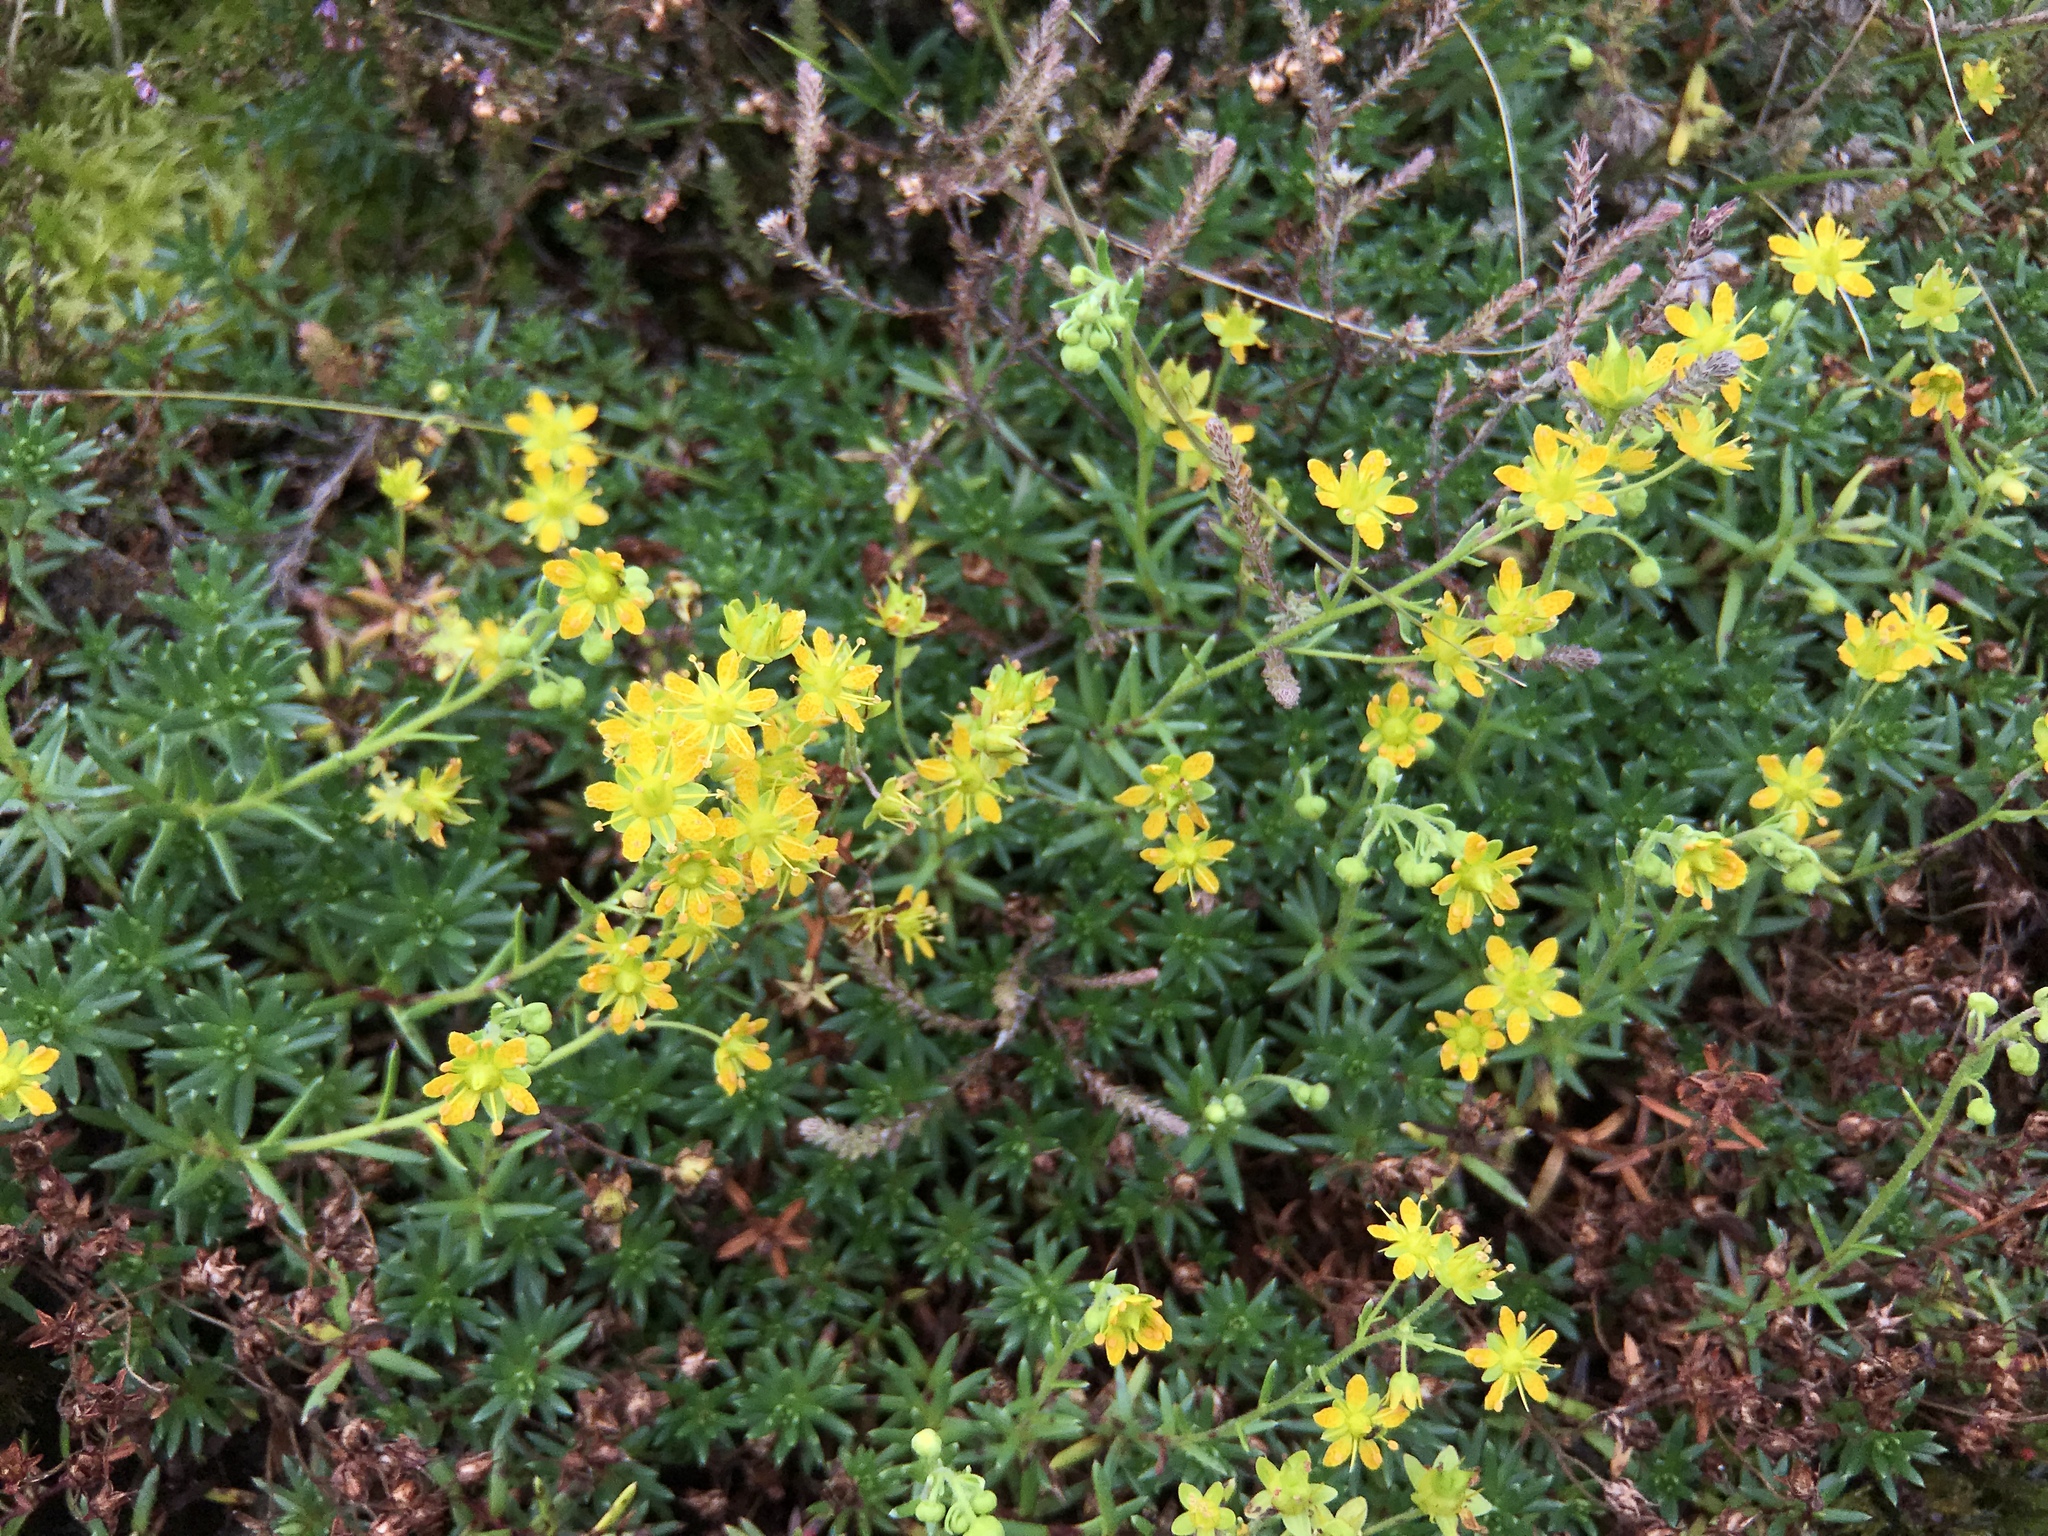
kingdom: Plantae
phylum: Tracheophyta
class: Magnoliopsida
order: Saxifragales
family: Saxifragaceae
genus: Saxifraga
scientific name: Saxifraga aizoides
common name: Yellow mountain saxifrage
